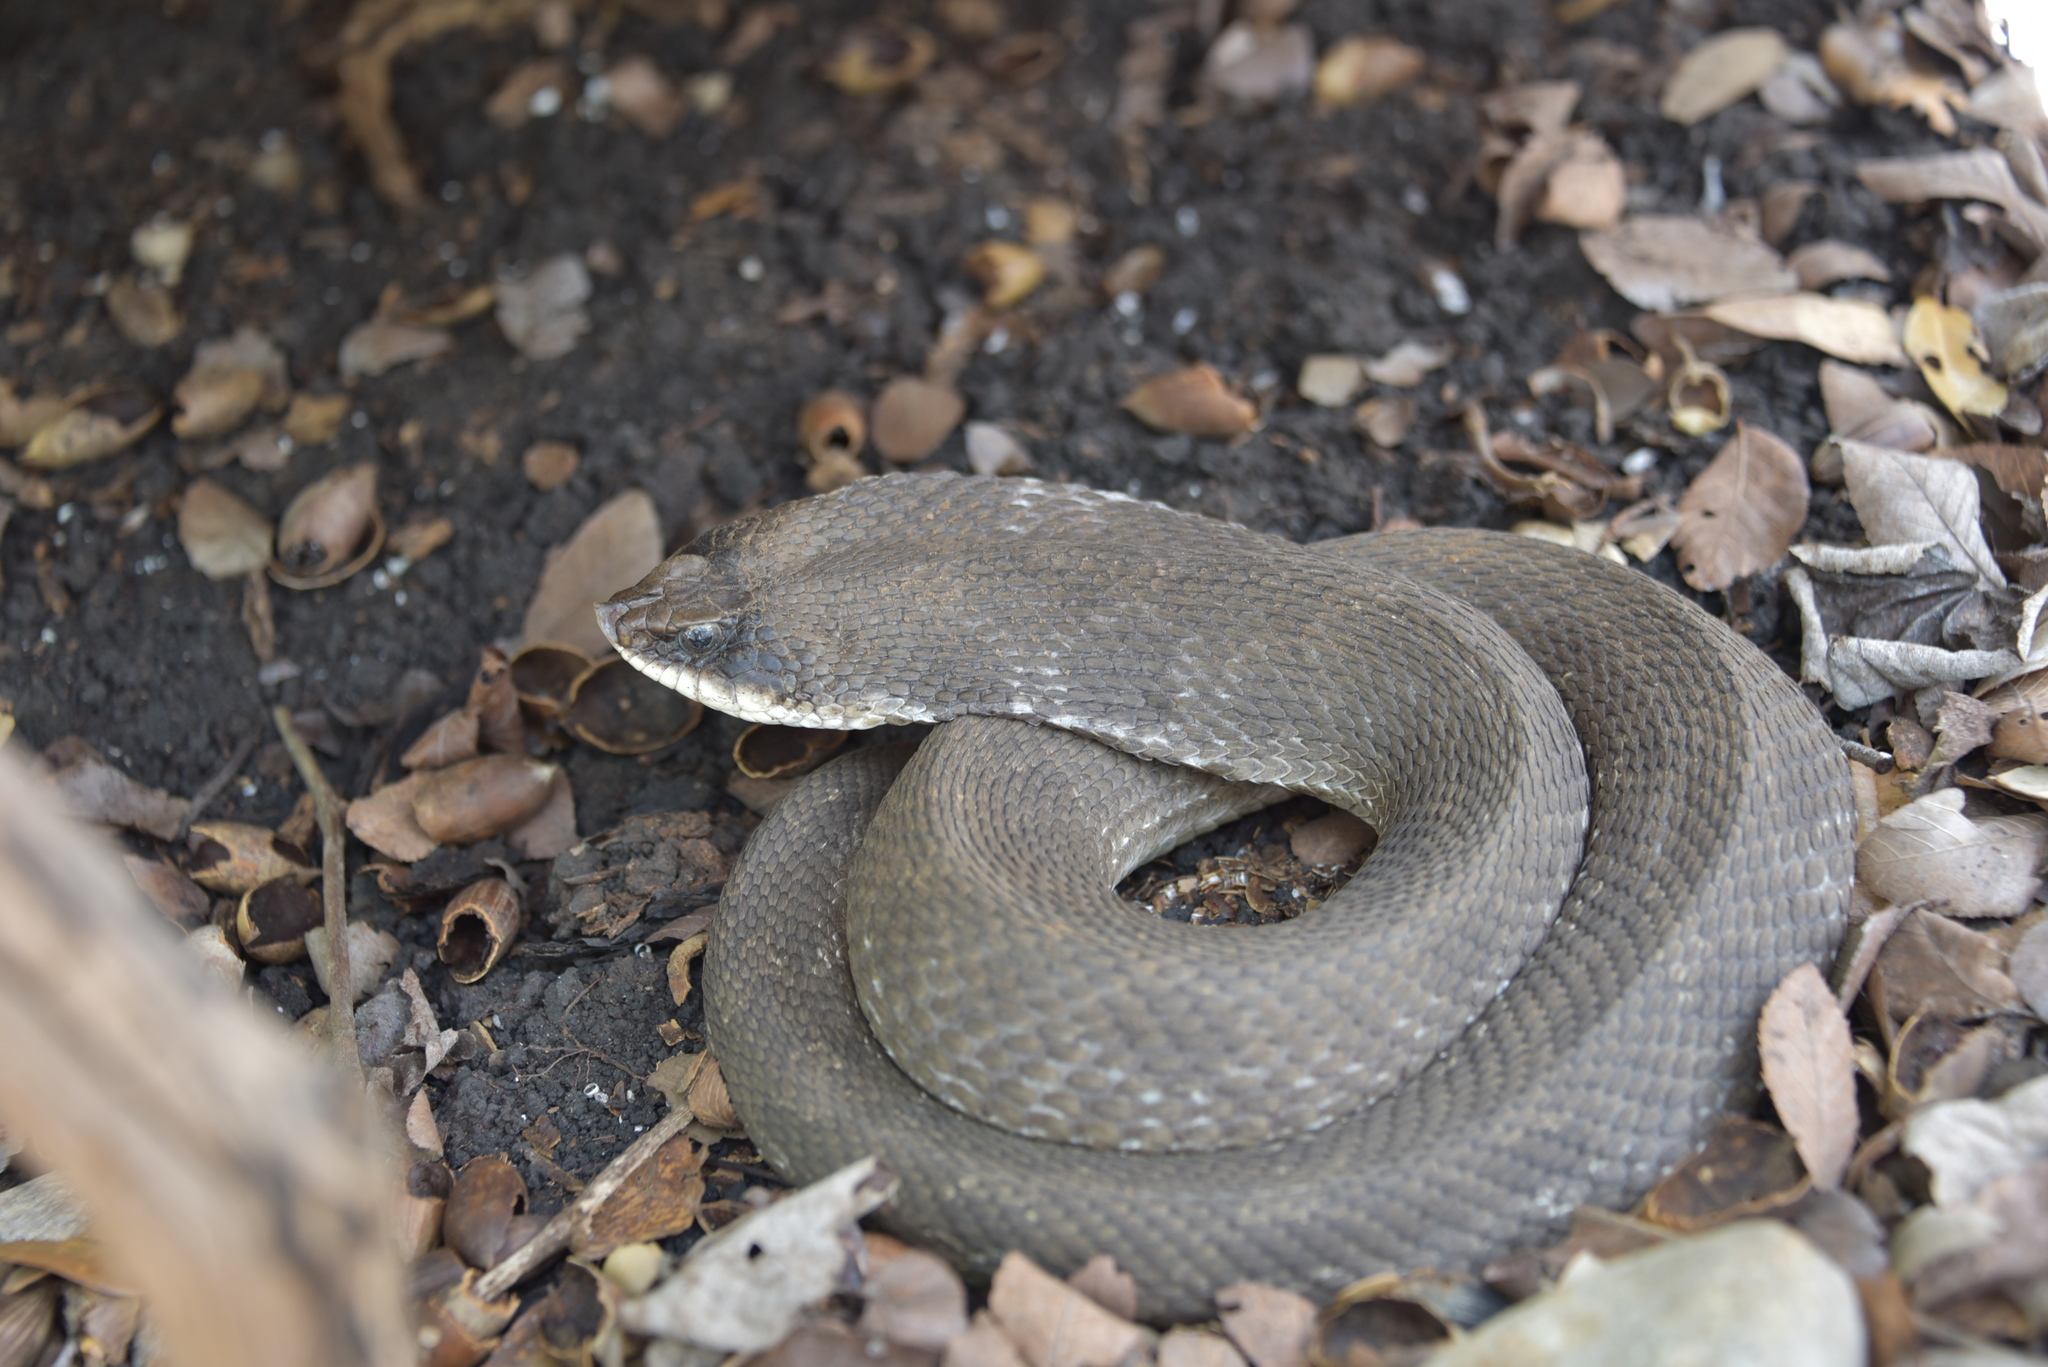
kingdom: Animalia
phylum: Chordata
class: Squamata
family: Colubridae
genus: Heterodon
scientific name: Heterodon platirhinos
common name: Eastern hognose snake
